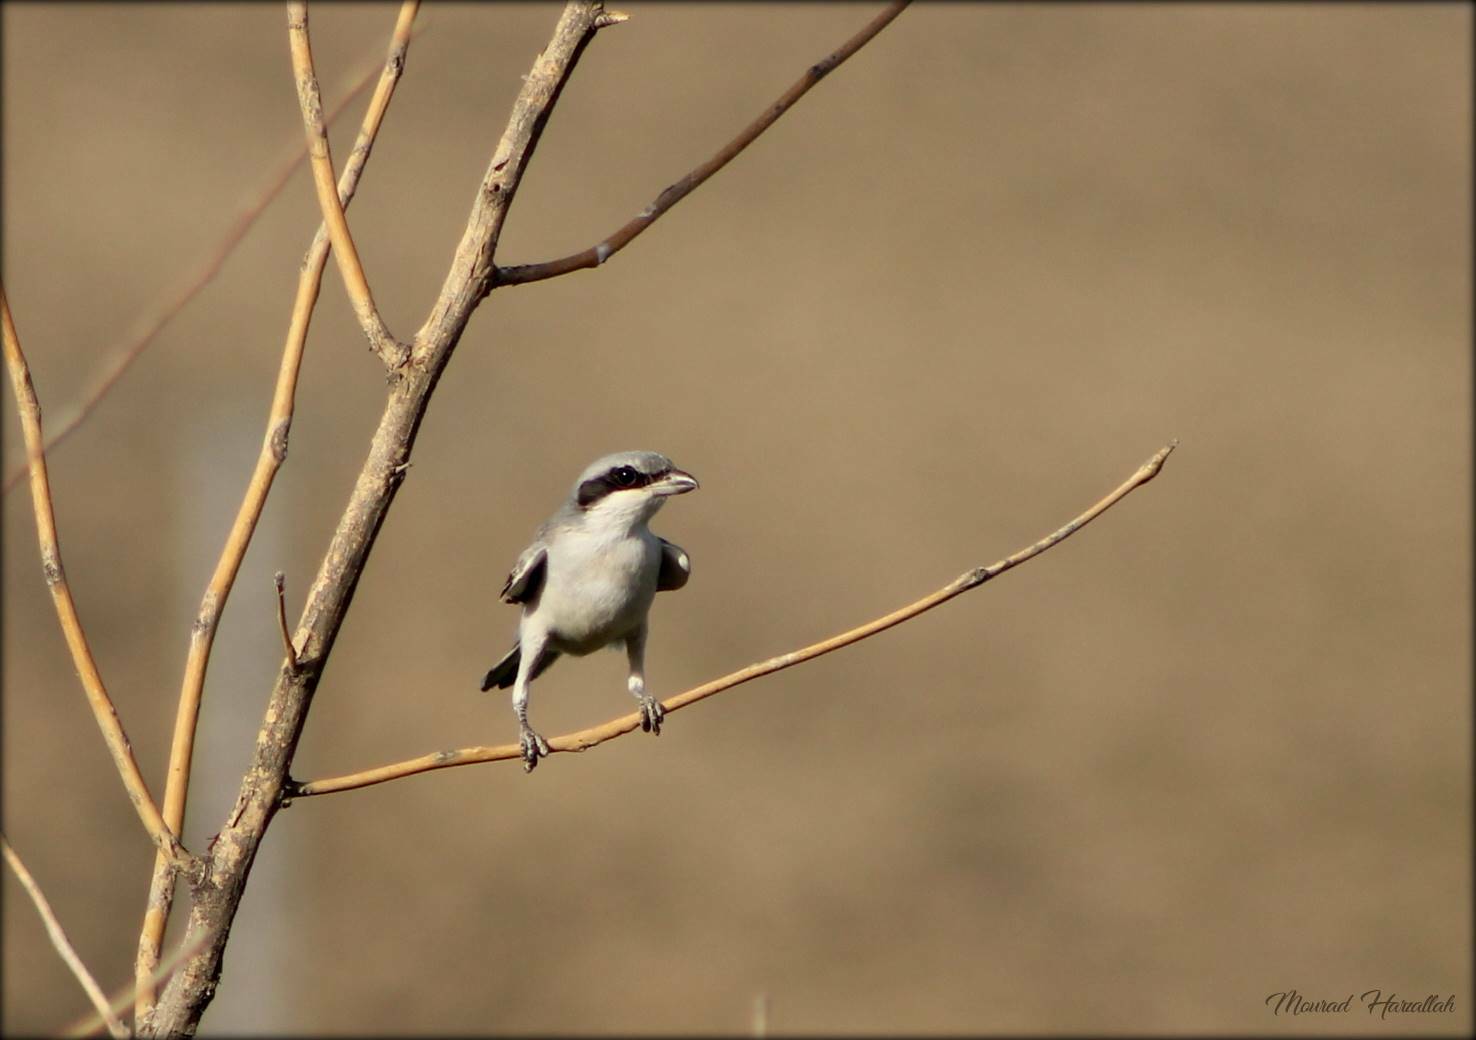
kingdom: Animalia
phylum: Chordata
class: Aves
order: Passeriformes
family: Laniidae
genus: Lanius
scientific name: Lanius excubitor
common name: Great grey shrike
